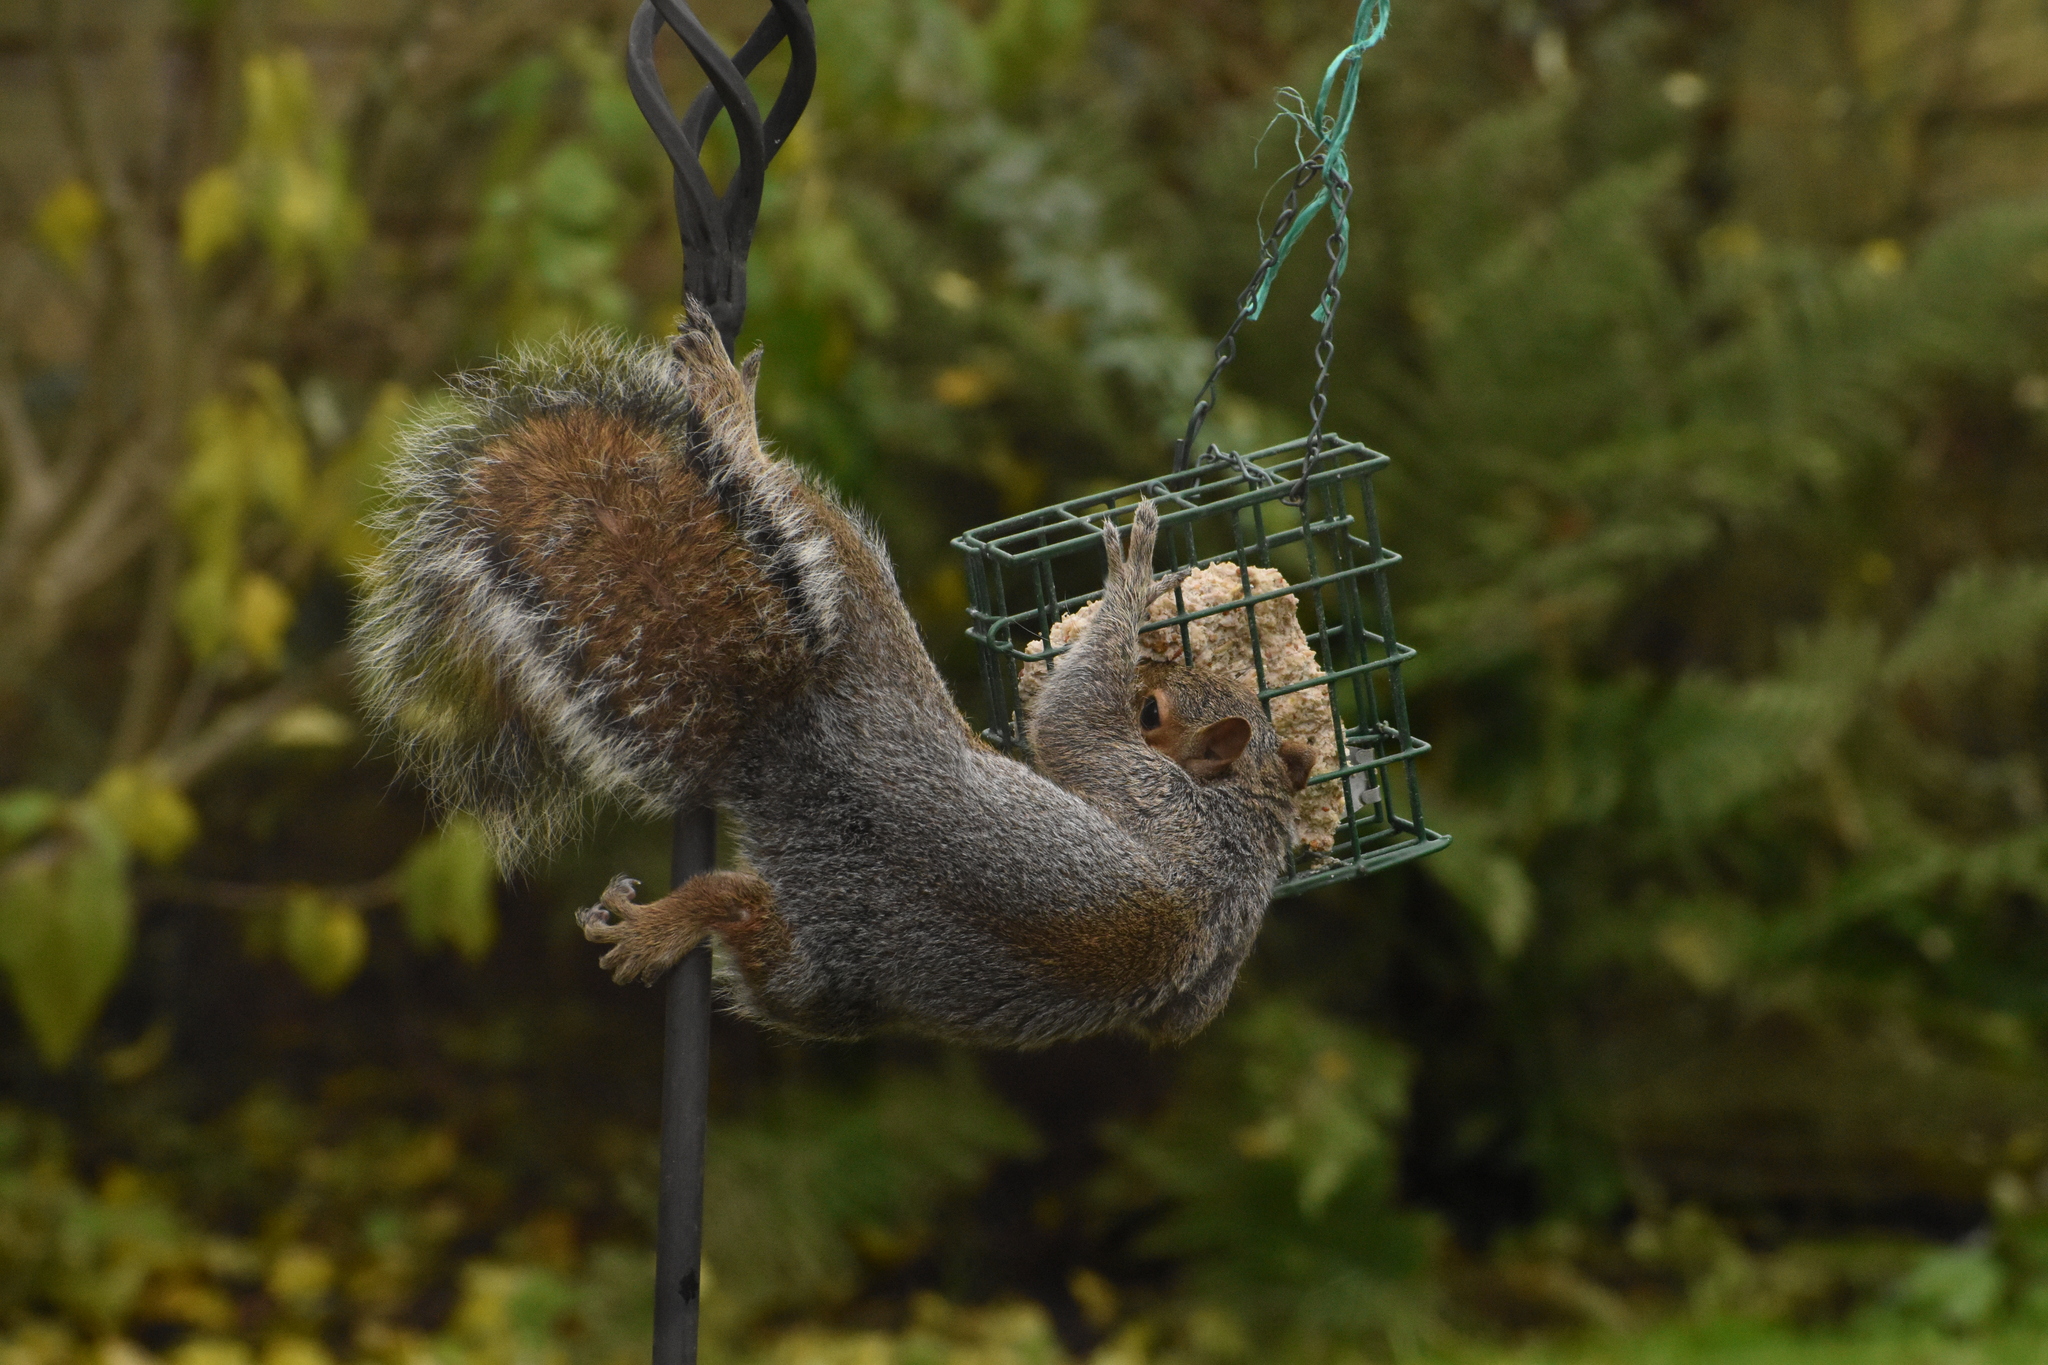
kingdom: Animalia
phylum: Chordata
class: Mammalia
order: Rodentia
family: Sciuridae
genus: Sciurus
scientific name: Sciurus carolinensis
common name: Eastern gray squirrel
